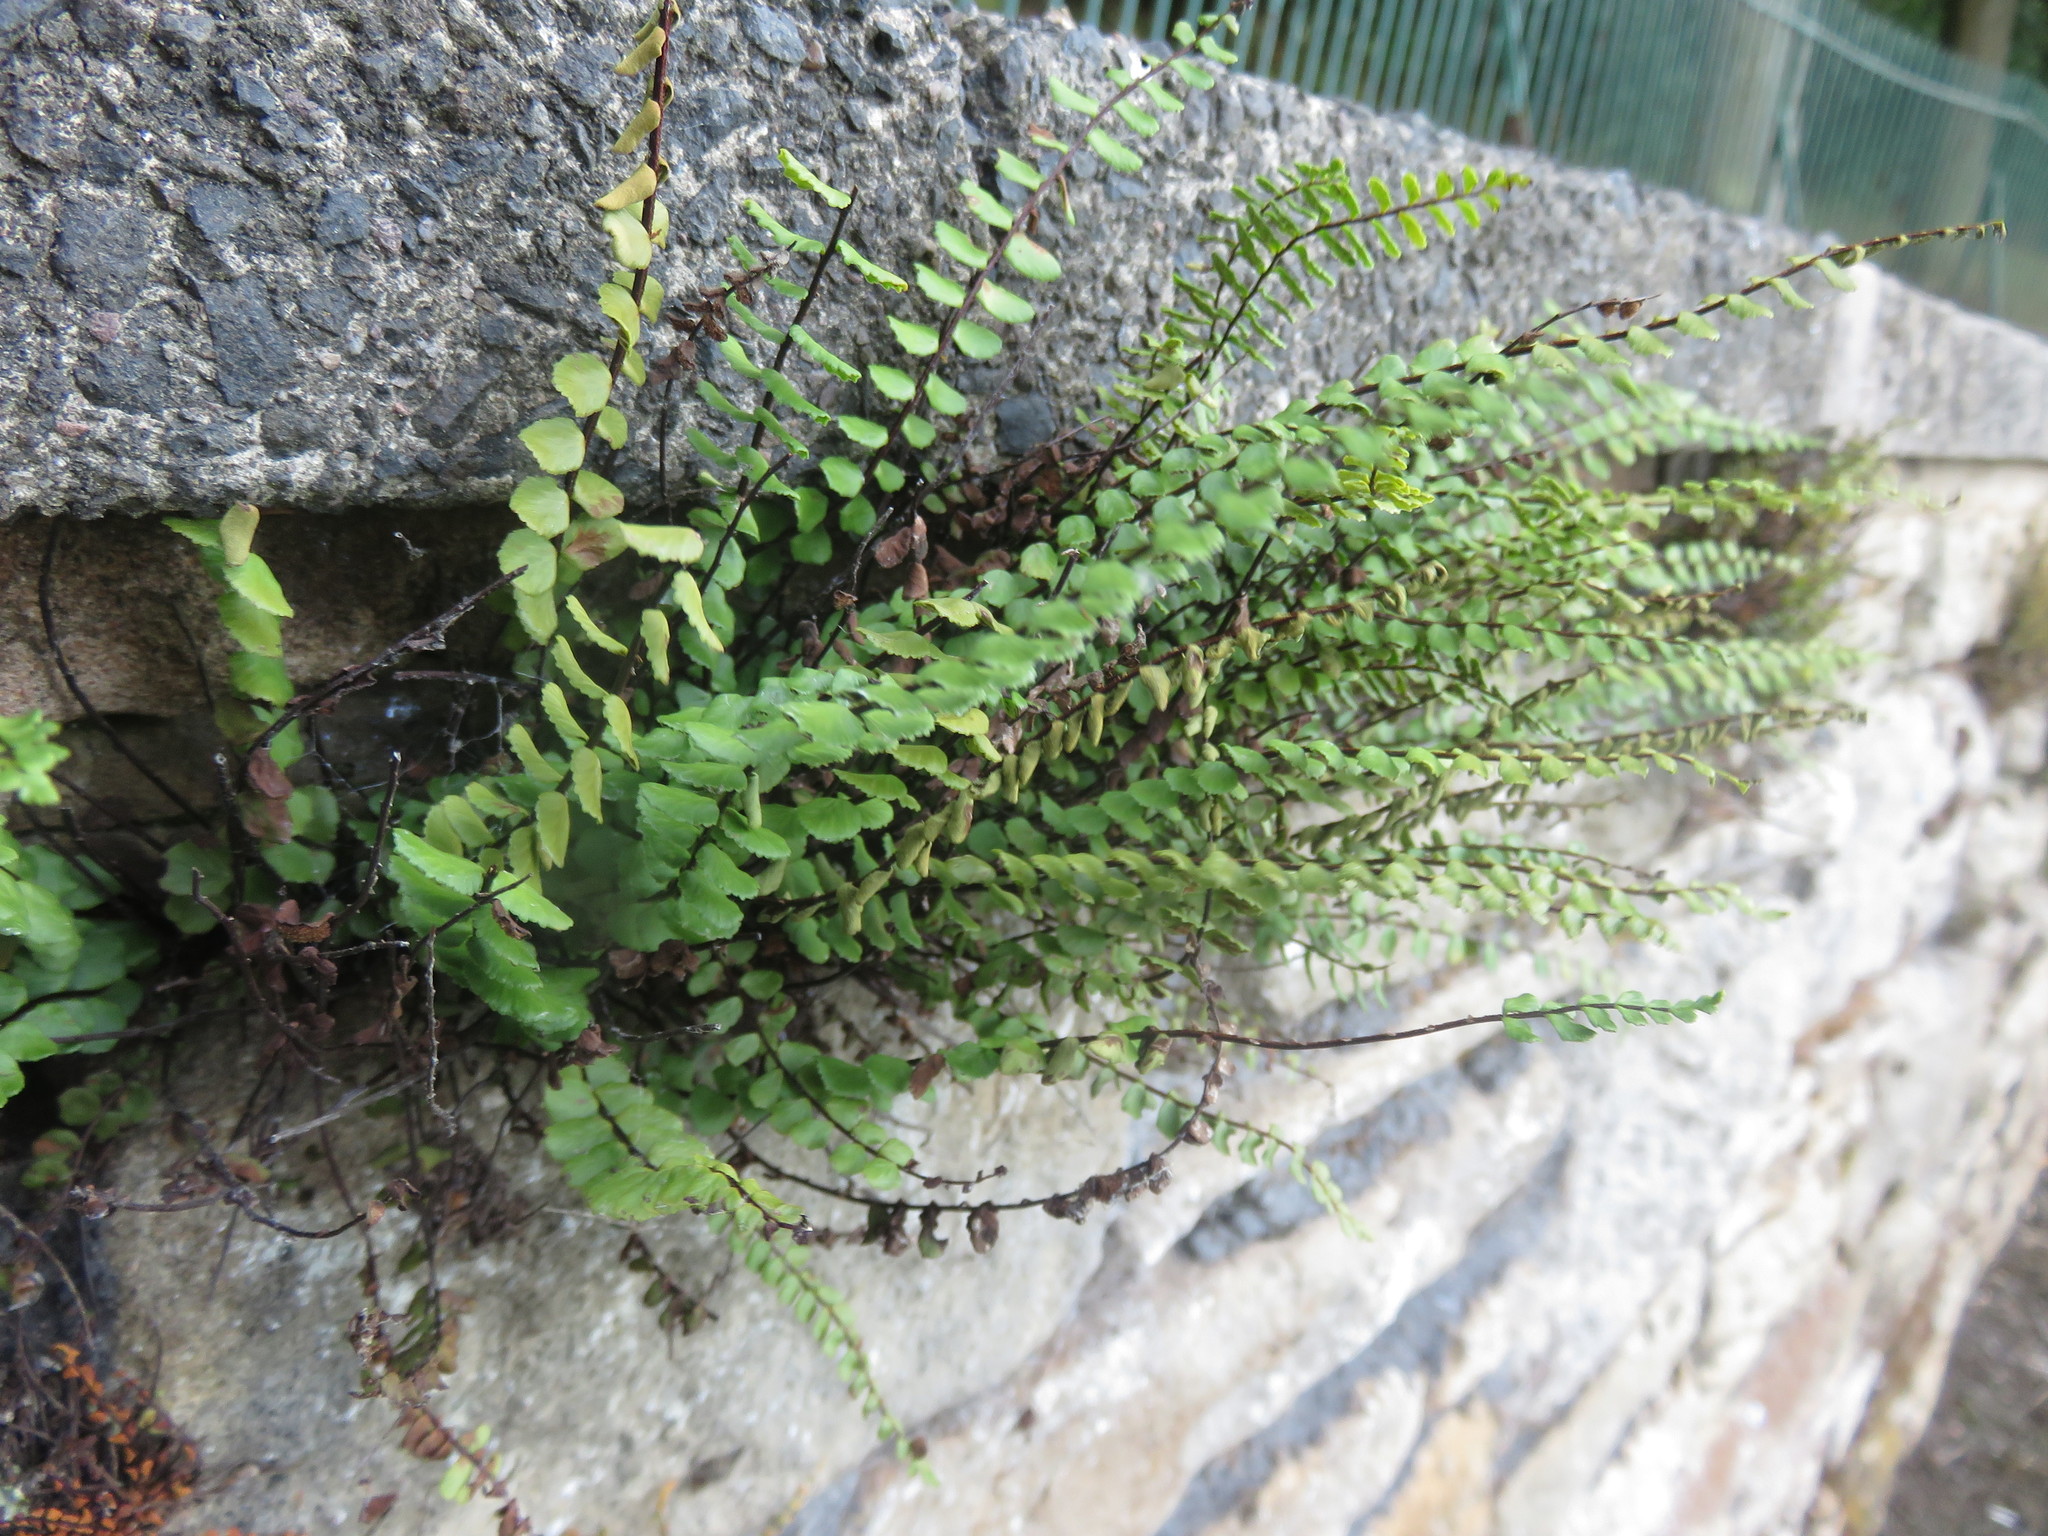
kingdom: Plantae
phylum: Tracheophyta
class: Polypodiopsida
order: Polypodiales
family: Aspleniaceae
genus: Asplenium
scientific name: Asplenium trichomanes
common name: Maidenhair spleenwort
